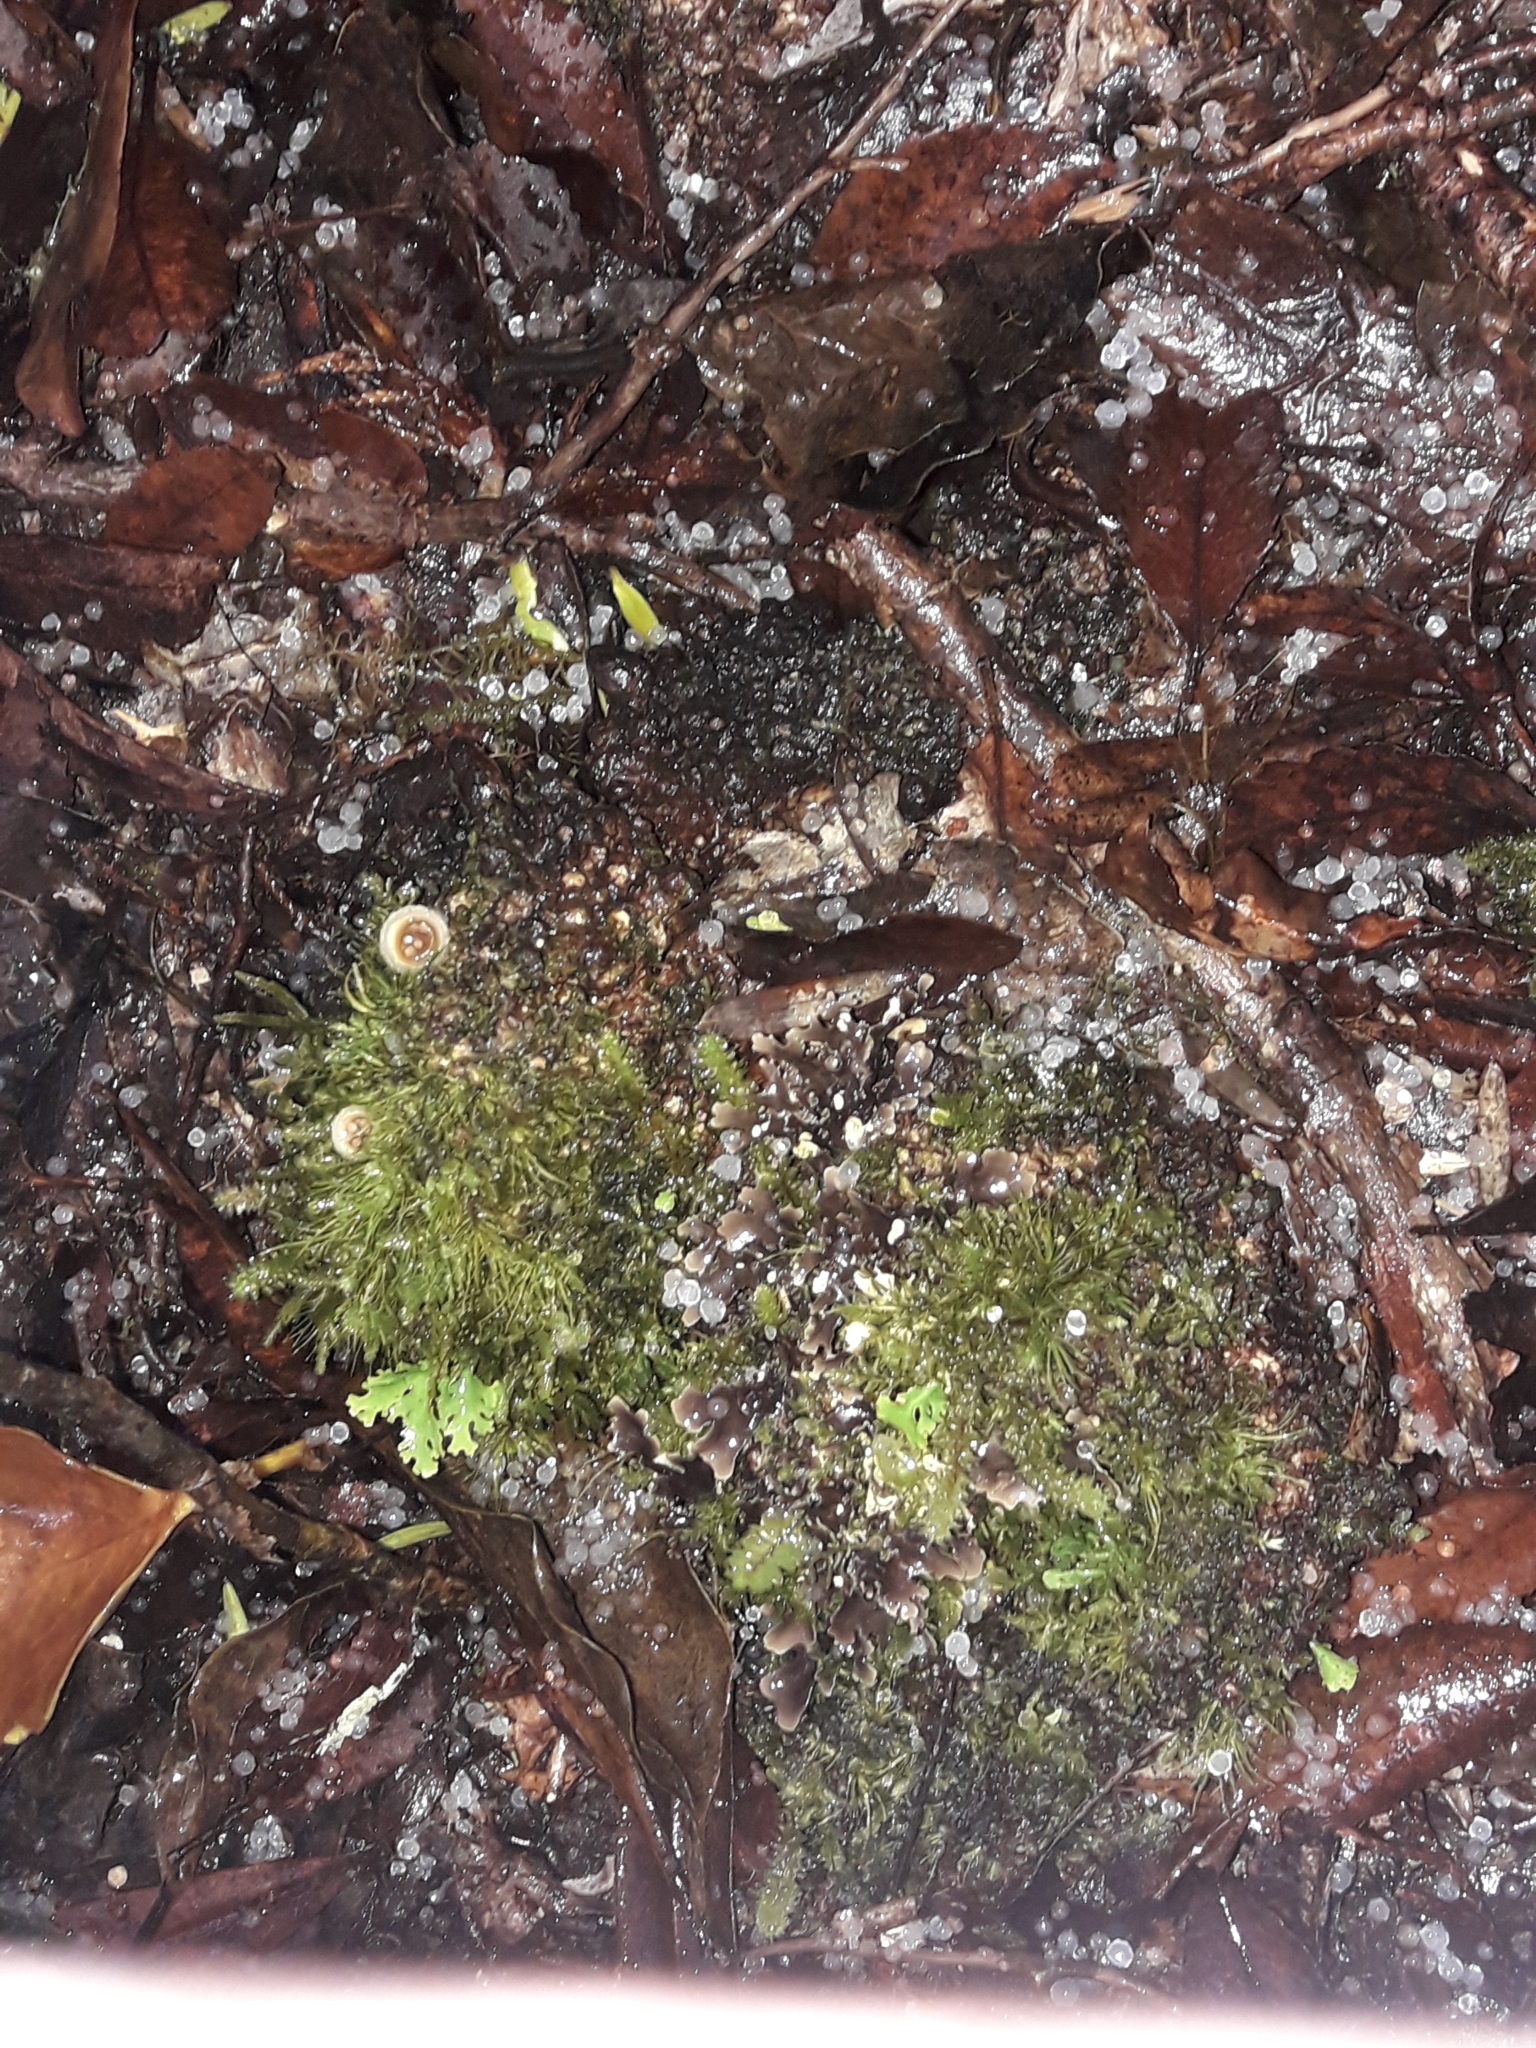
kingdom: Plantae
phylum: Tracheophyta
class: Magnoliopsida
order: Santalales
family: Mystropetalaceae
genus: Dactylanthus
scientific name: Dactylanthus taylorii
